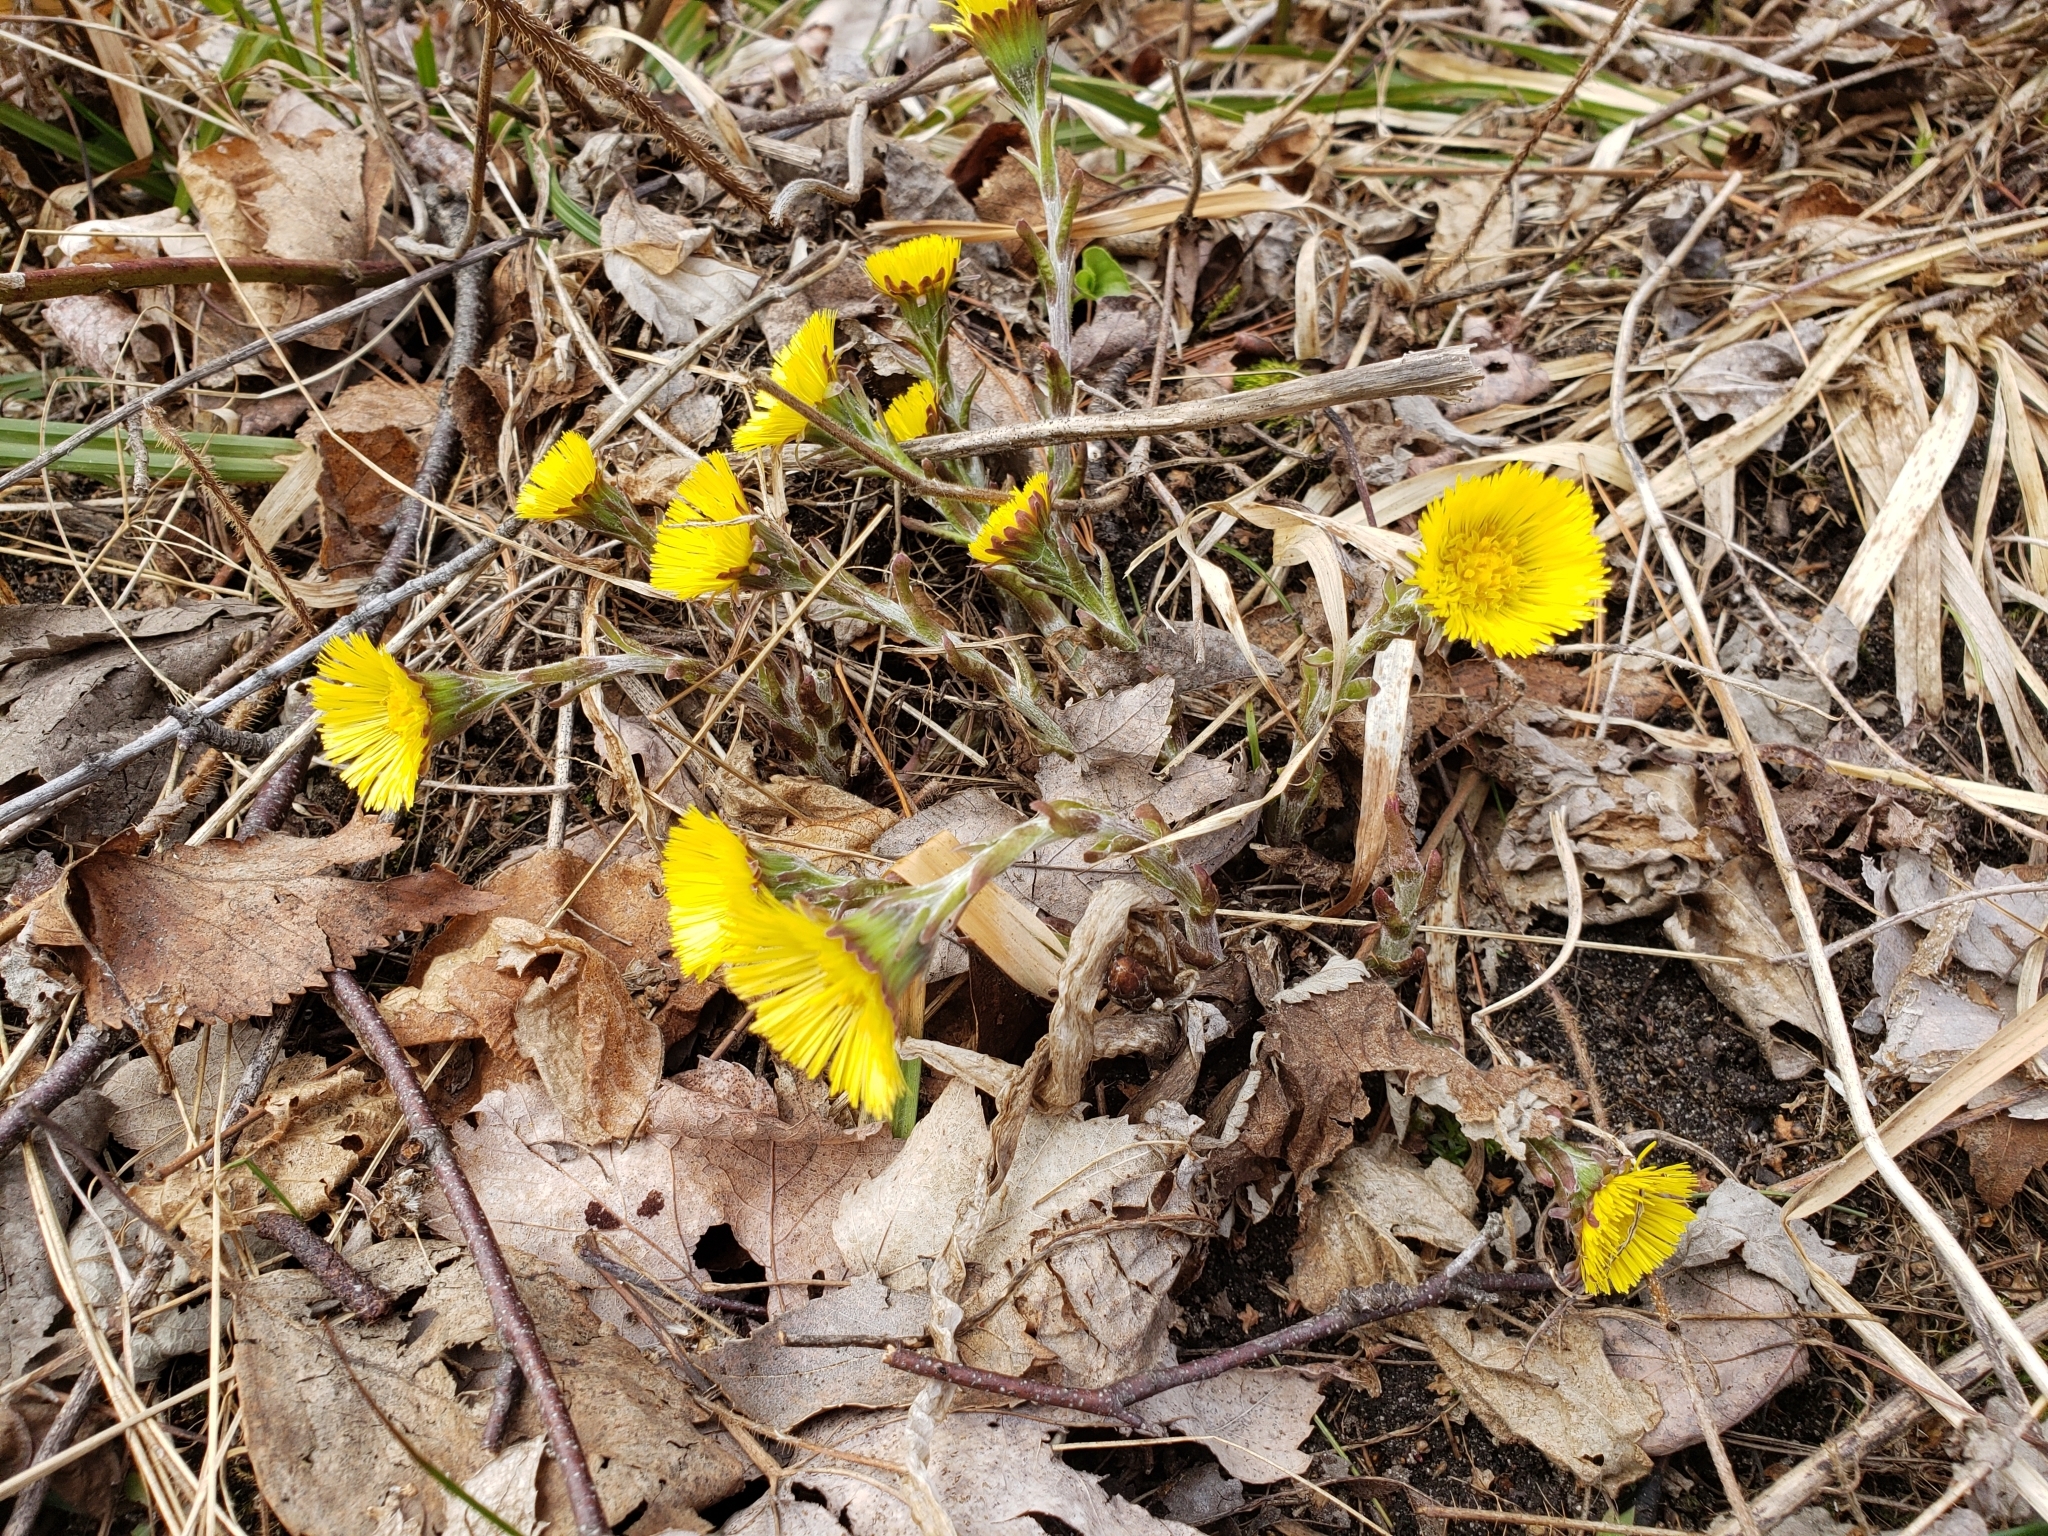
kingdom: Plantae
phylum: Tracheophyta
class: Magnoliopsida
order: Asterales
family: Asteraceae
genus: Tussilago
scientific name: Tussilago farfara
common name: Coltsfoot
